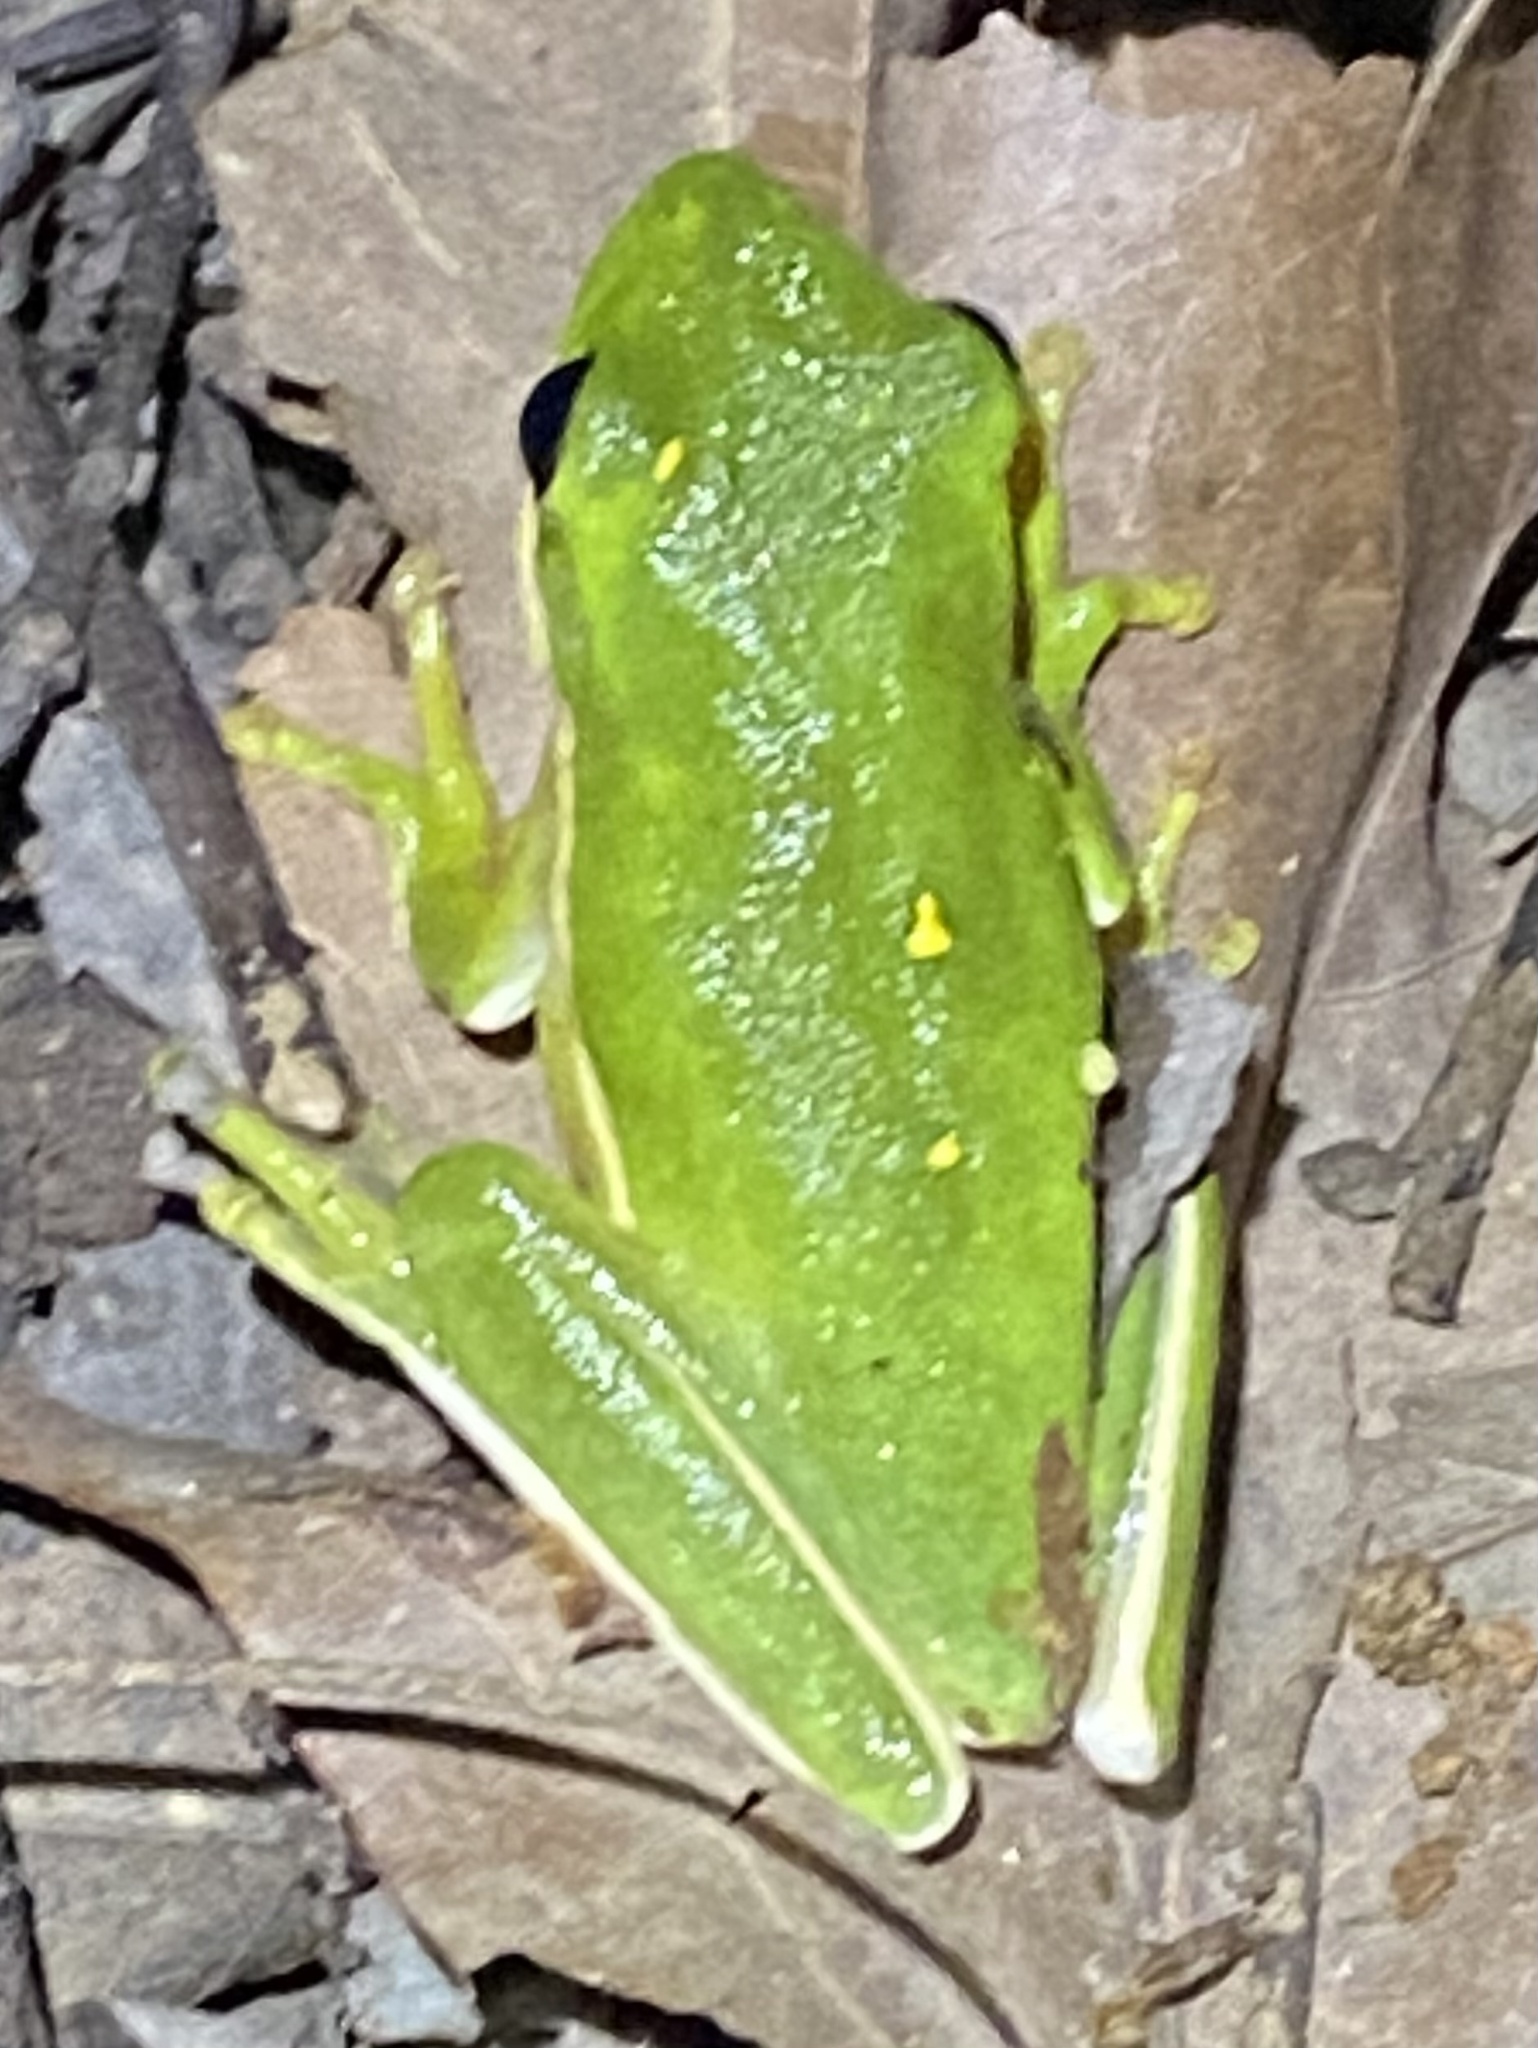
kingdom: Animalia
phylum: Chordata
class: Amphibia
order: Anura
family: Hylidae
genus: Dryophytes
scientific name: Dryophytes cinereus
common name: Green treefrog
